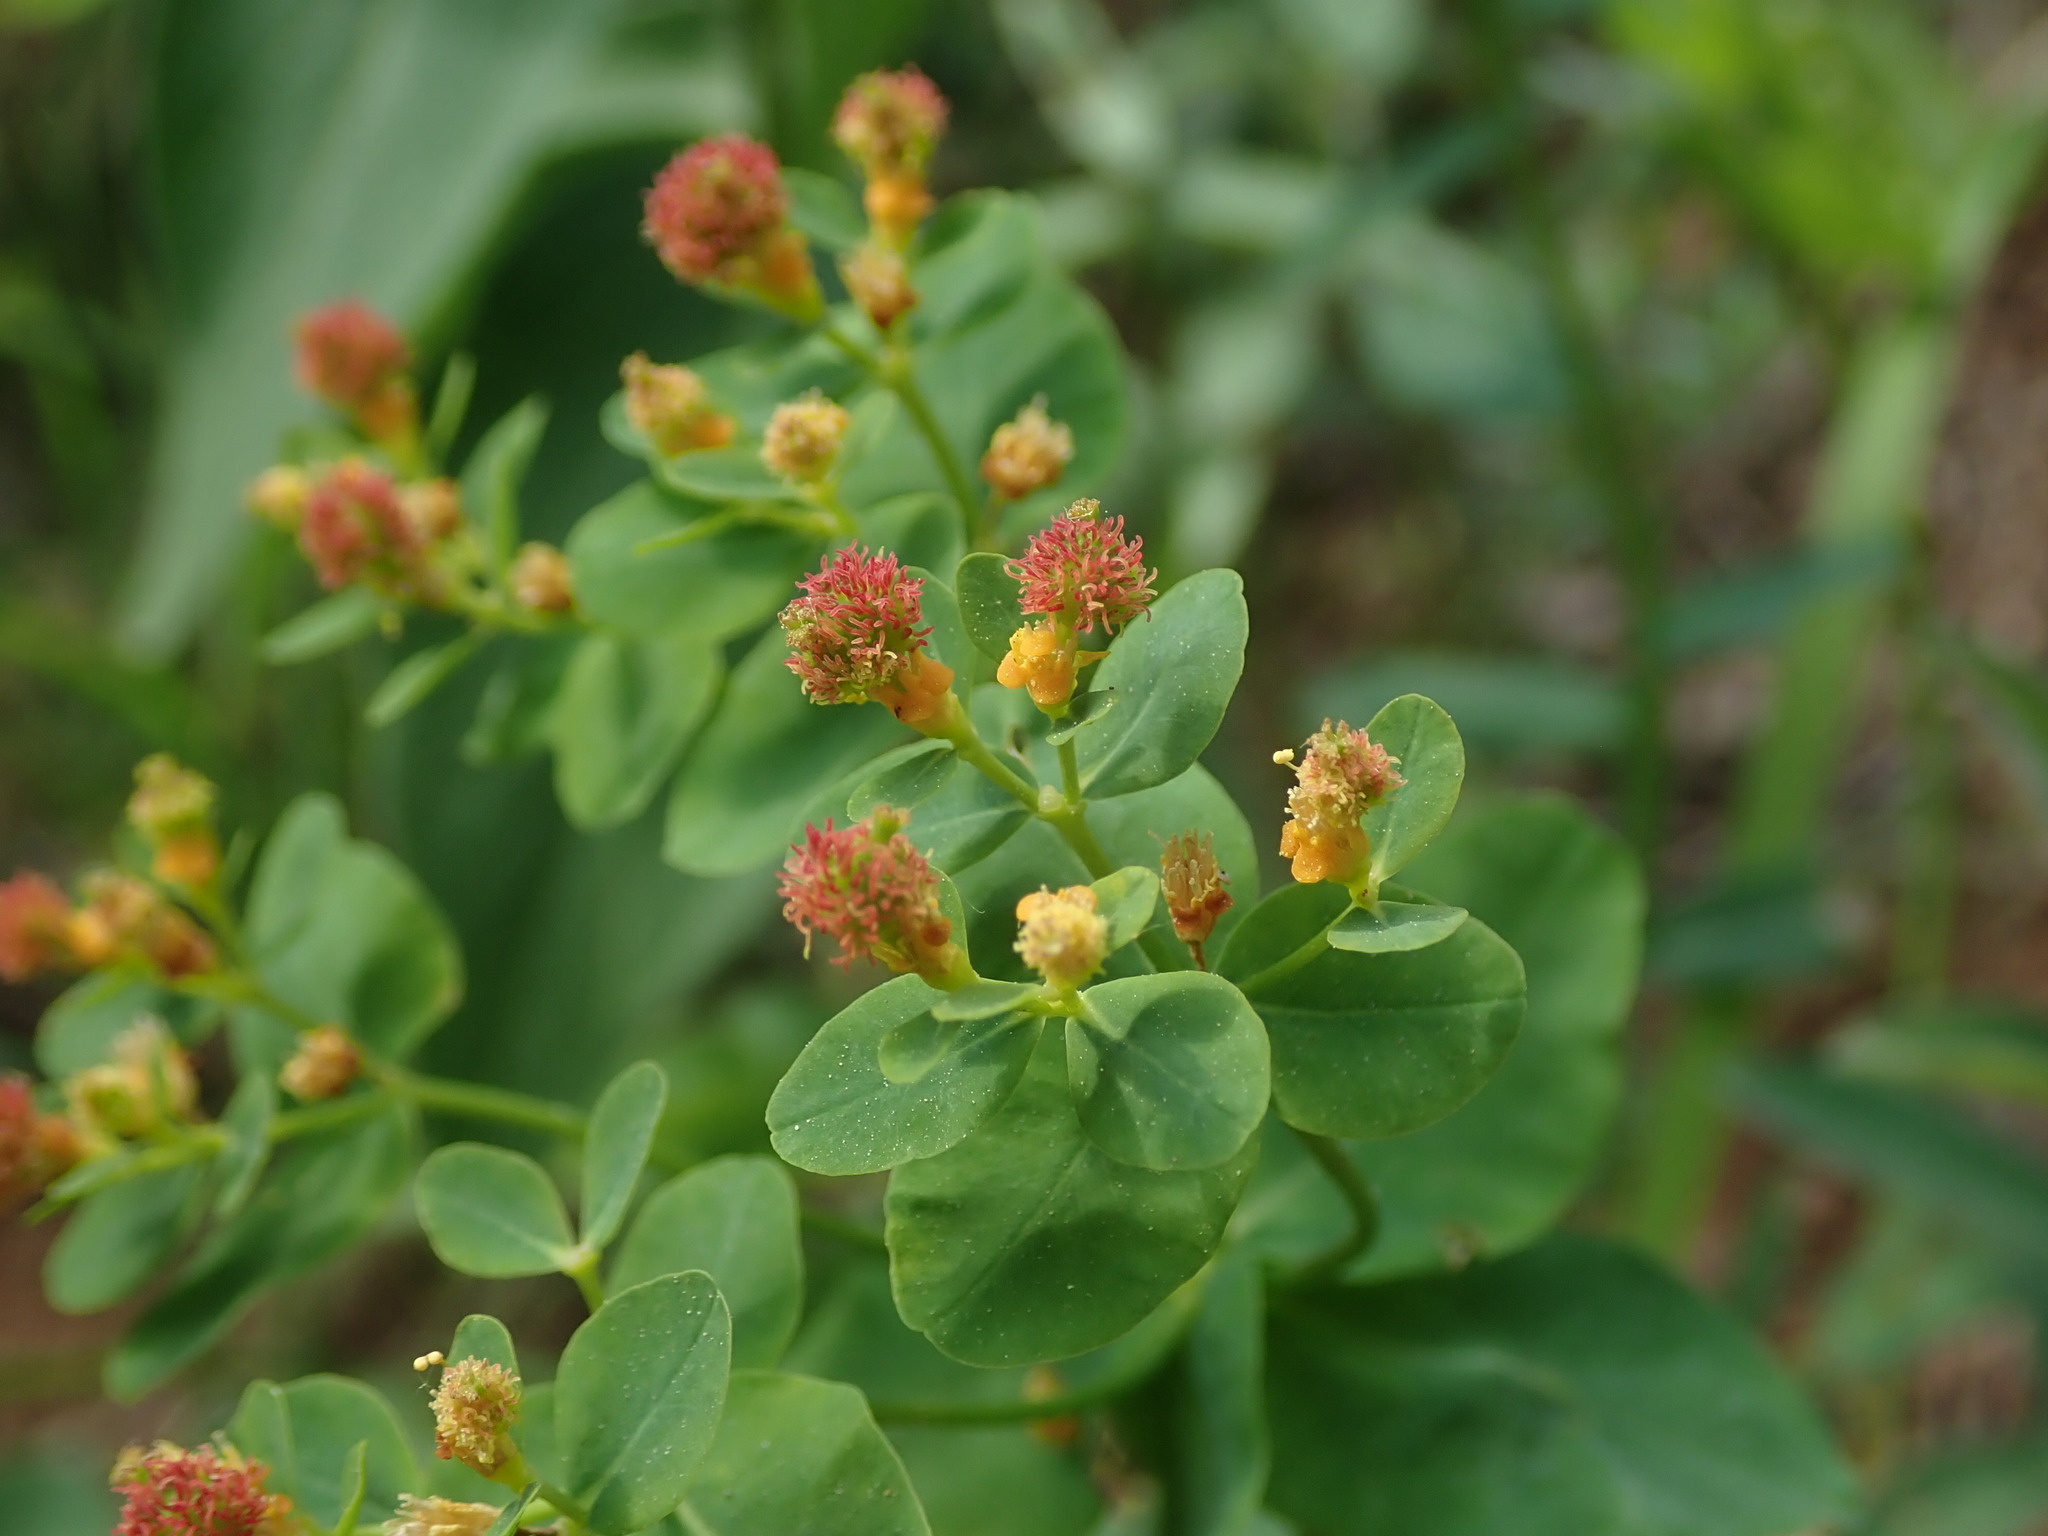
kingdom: Plantae
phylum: Tracheophyta
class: Magnoliopsida
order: Malpighiales
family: Euphorbiaceae
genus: Euphorbia
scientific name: Euphorbia epithymoides
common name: Cushion spurge
